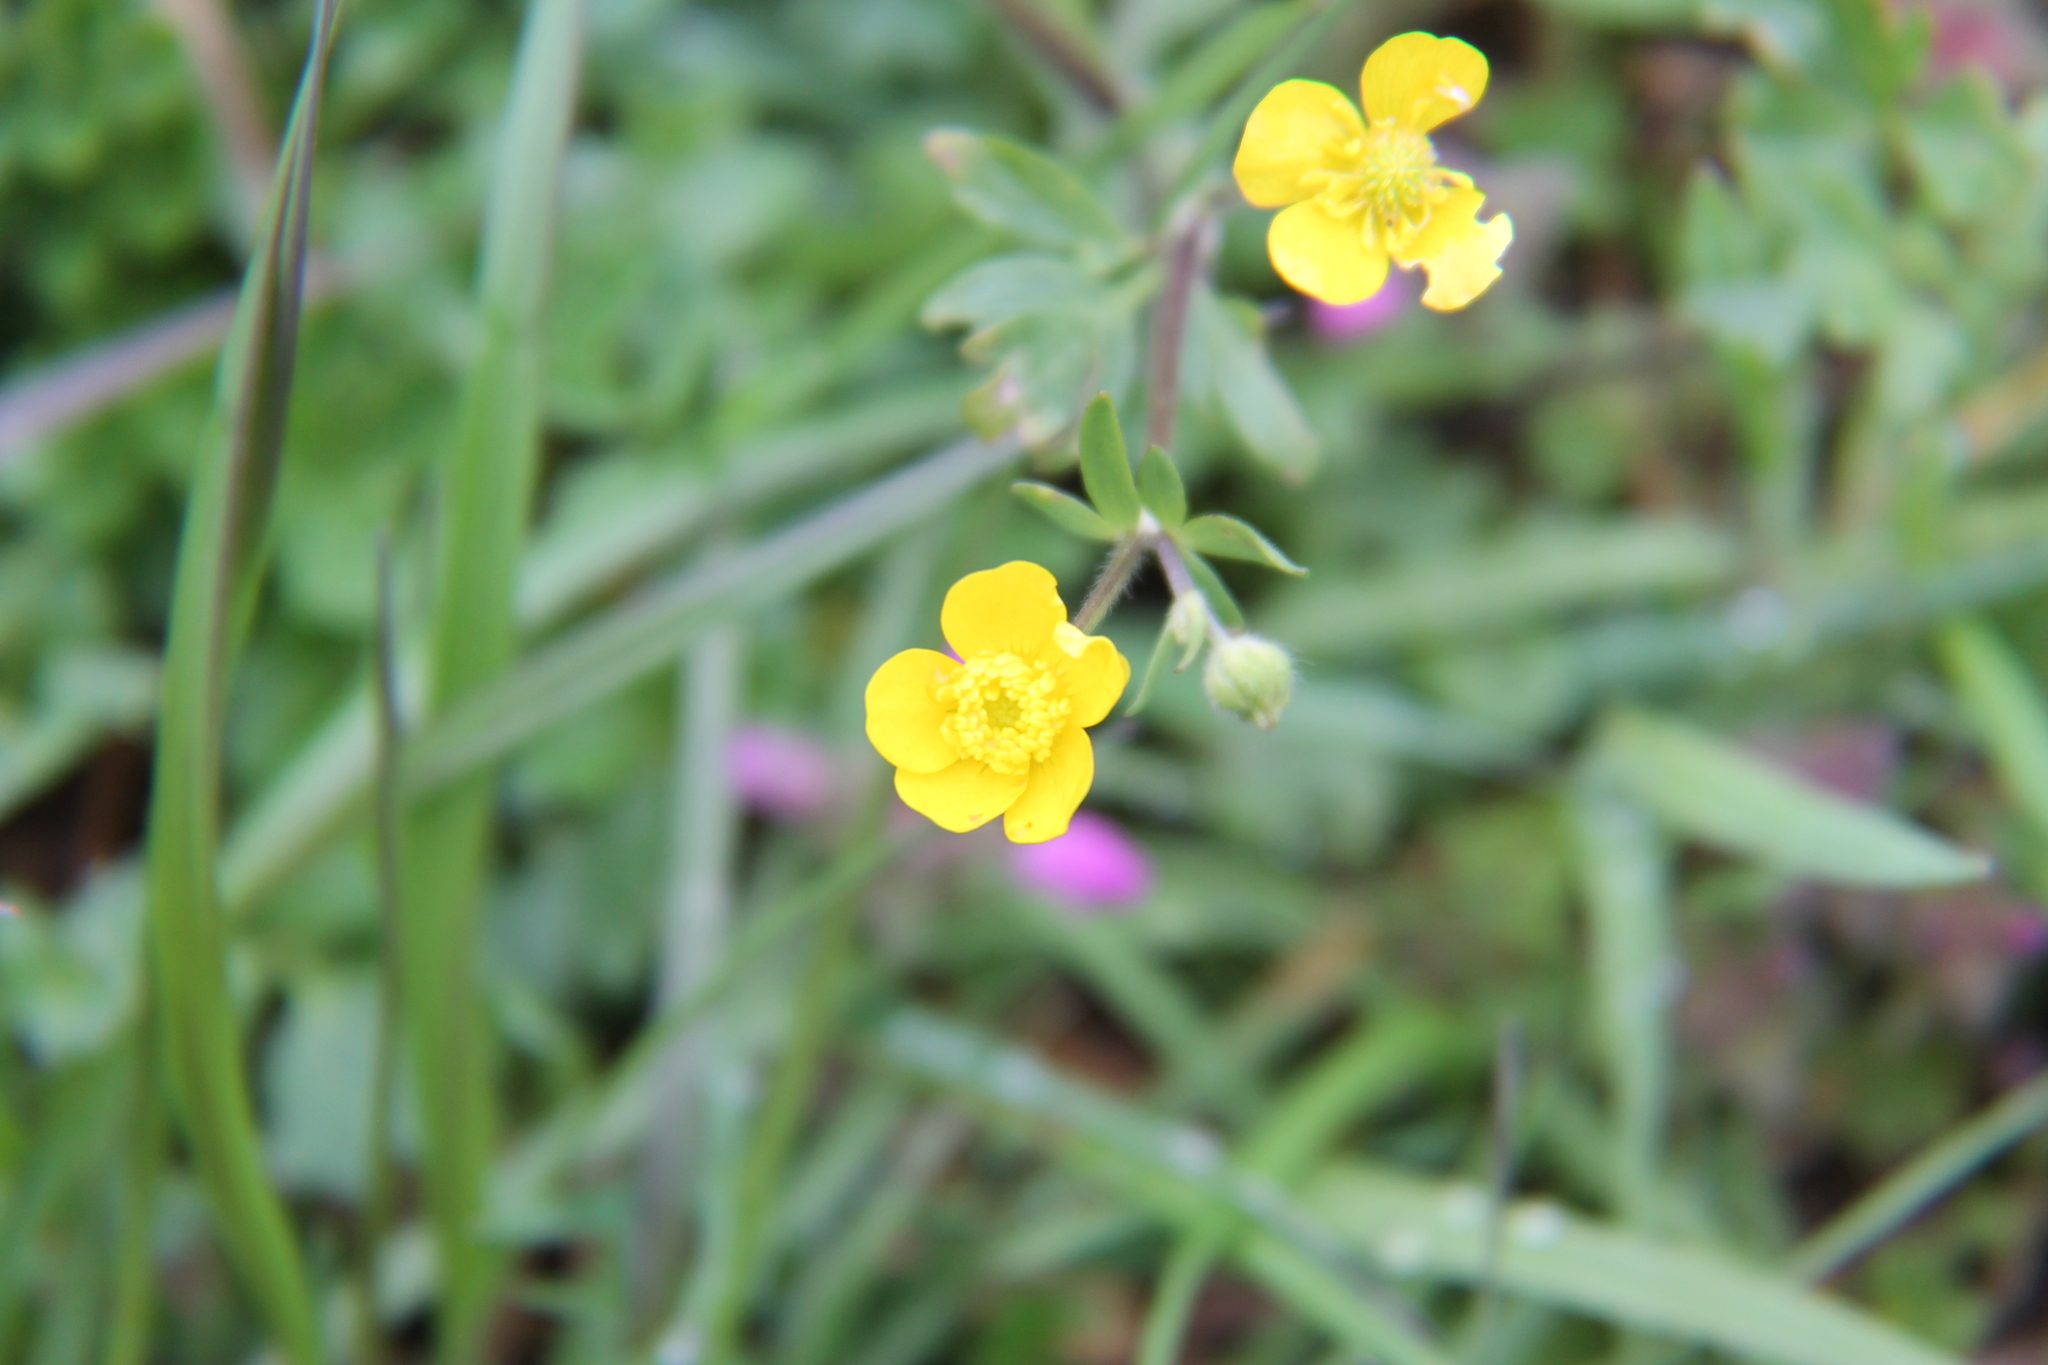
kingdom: Plantae
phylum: Tracheophyta
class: Magnoliopsida
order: Ranunculales
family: Ranunculaceae
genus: Ranunculus
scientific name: Ranunculus fascicularis
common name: Early buttercup
